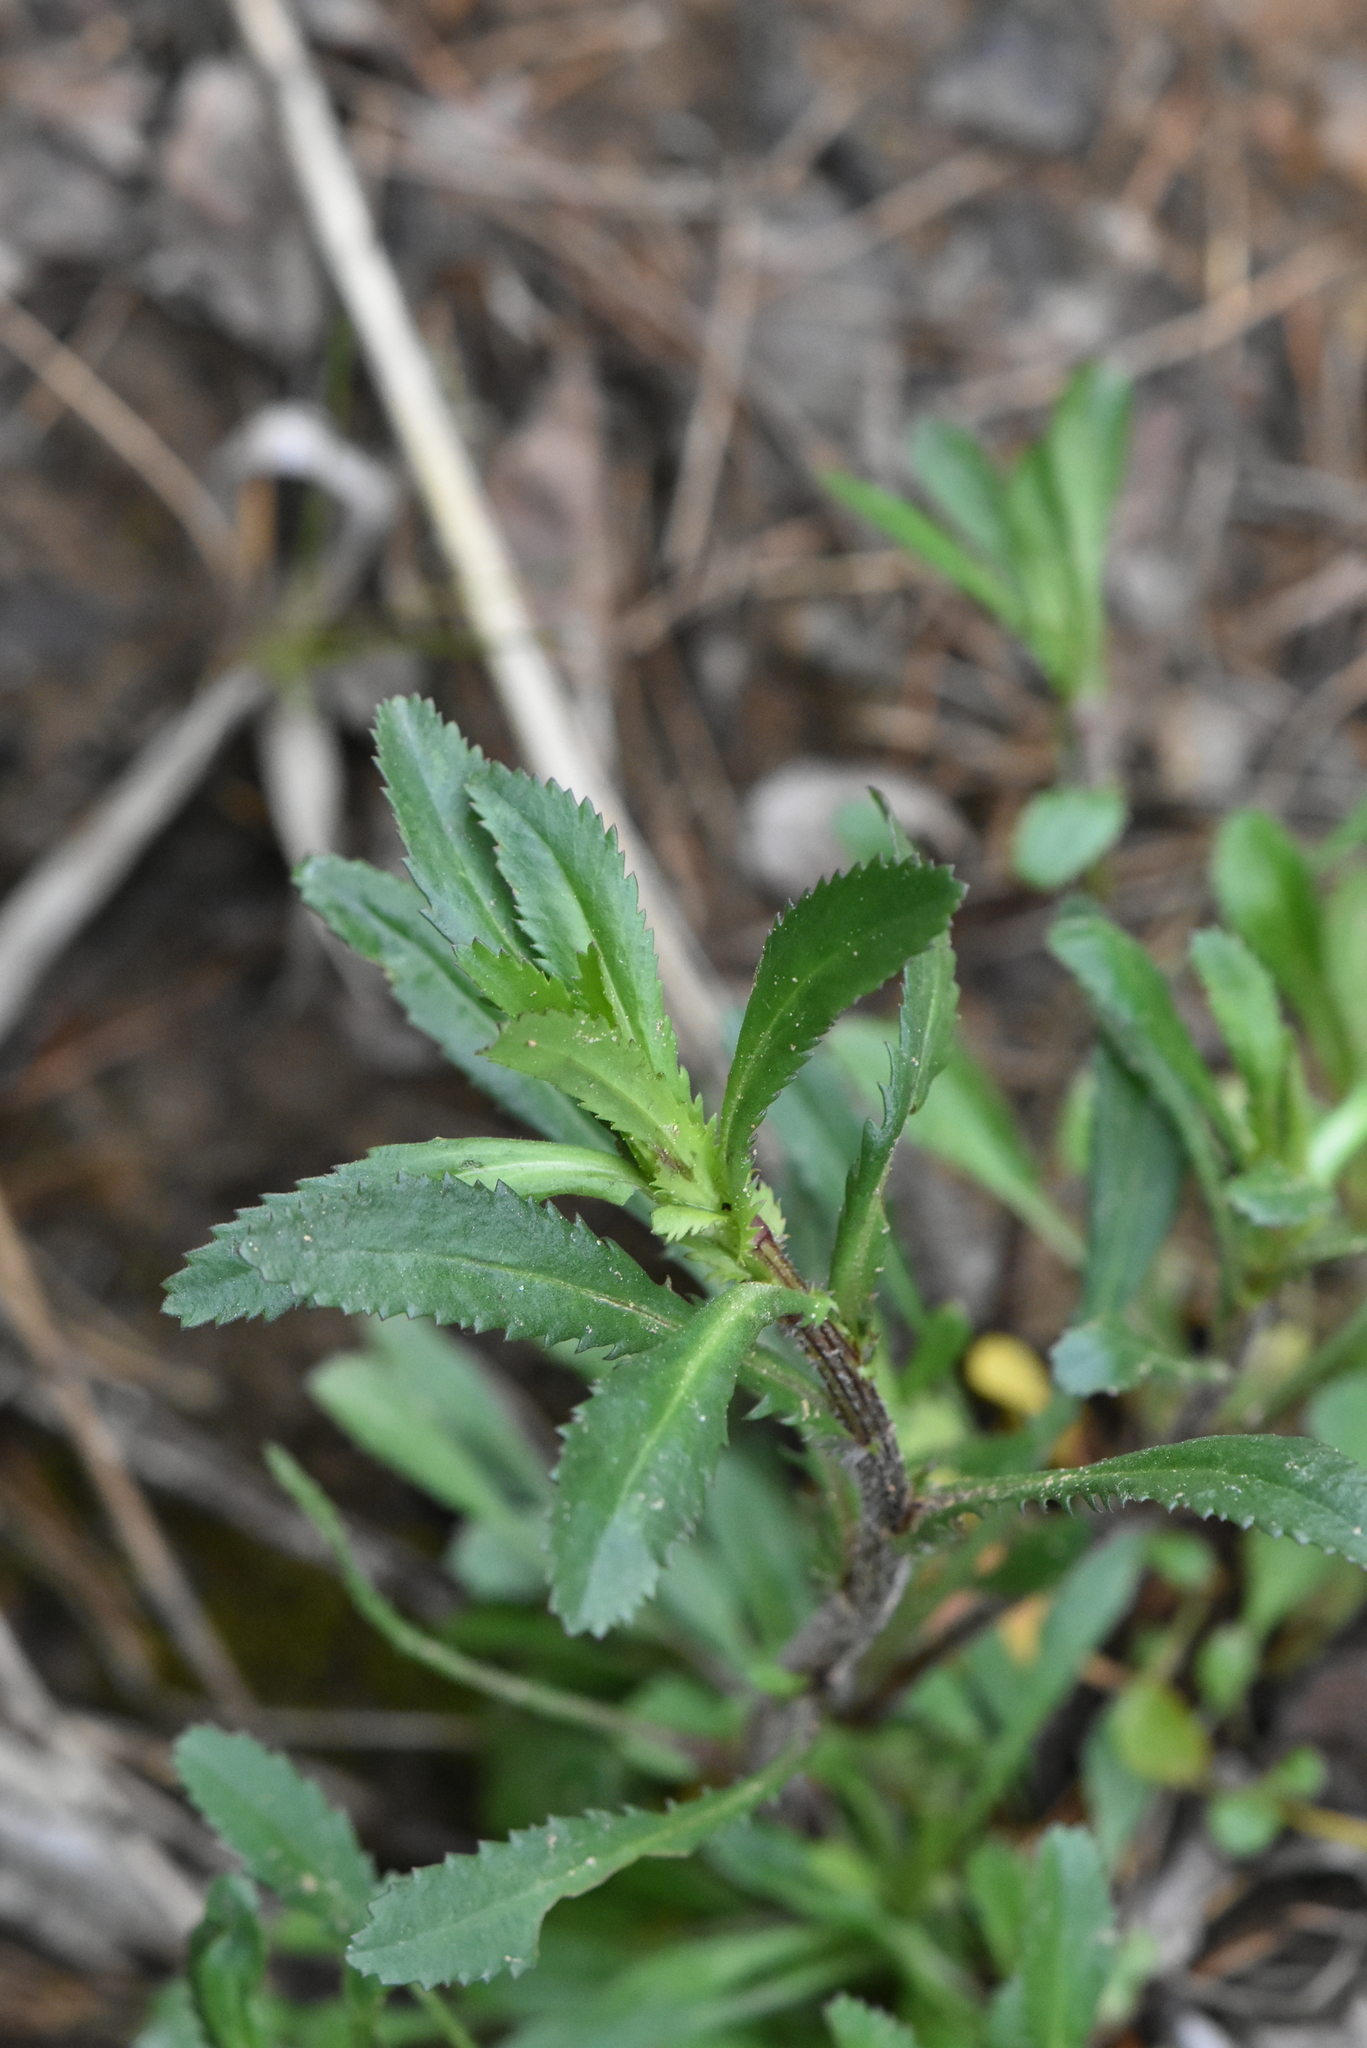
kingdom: Plantae
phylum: Tracheophyta
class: Magnoliopsida
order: Asterales
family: Asteraceae
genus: Leucanthemum
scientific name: Leucanthemum vulgare
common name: Oxeye daisy
